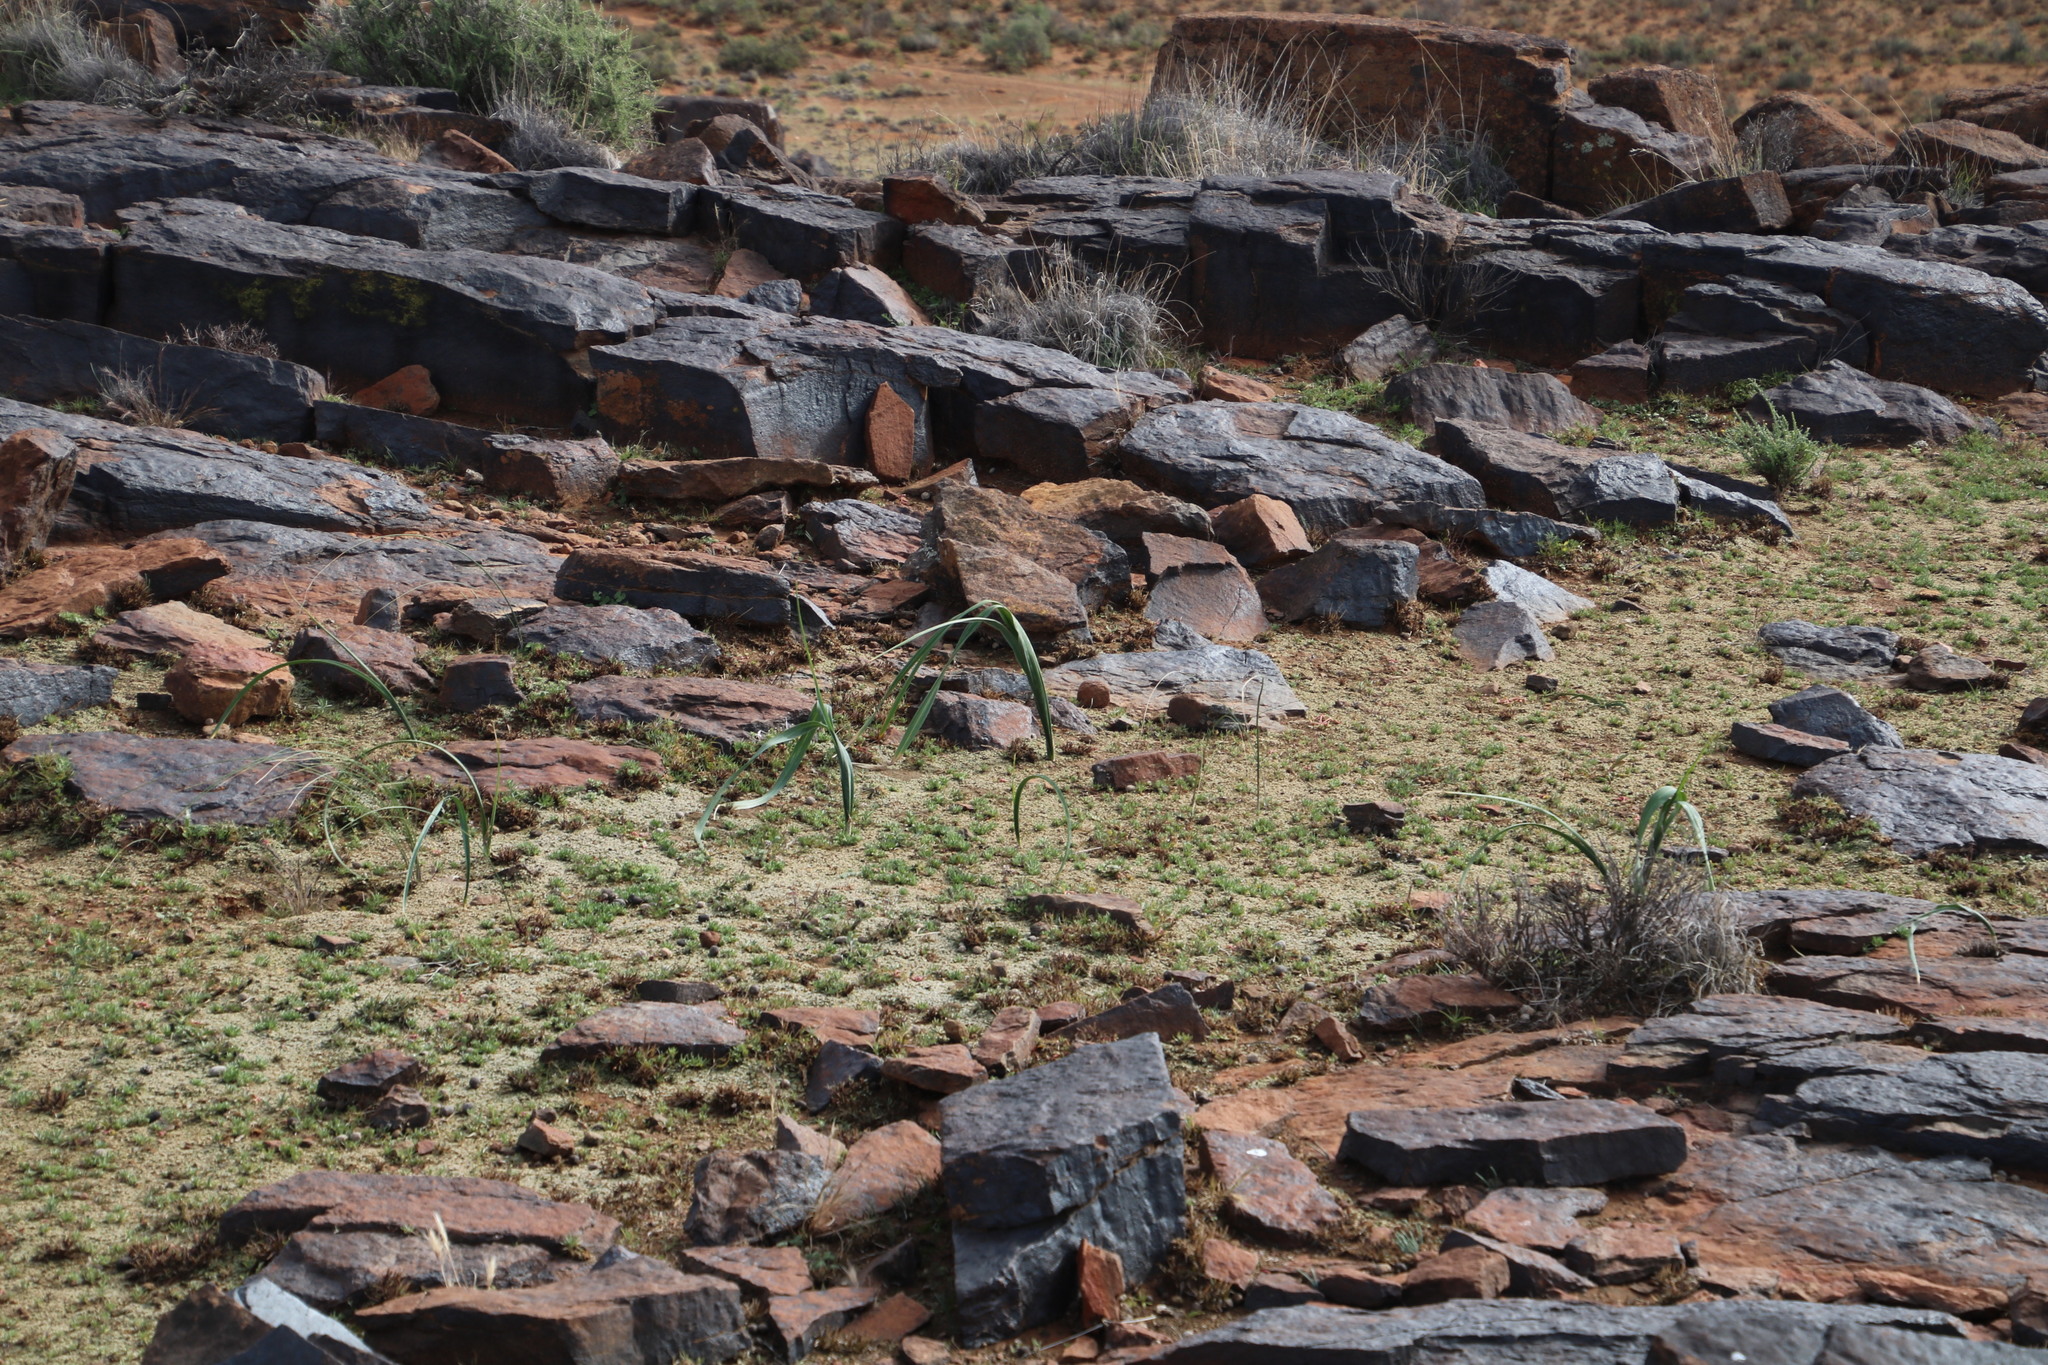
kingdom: Plantae
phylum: Tracheophyta
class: Liliopsida
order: Asparagales
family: Iridaceae
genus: Moraea
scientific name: Moraea polystachya
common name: Blue-tulip
